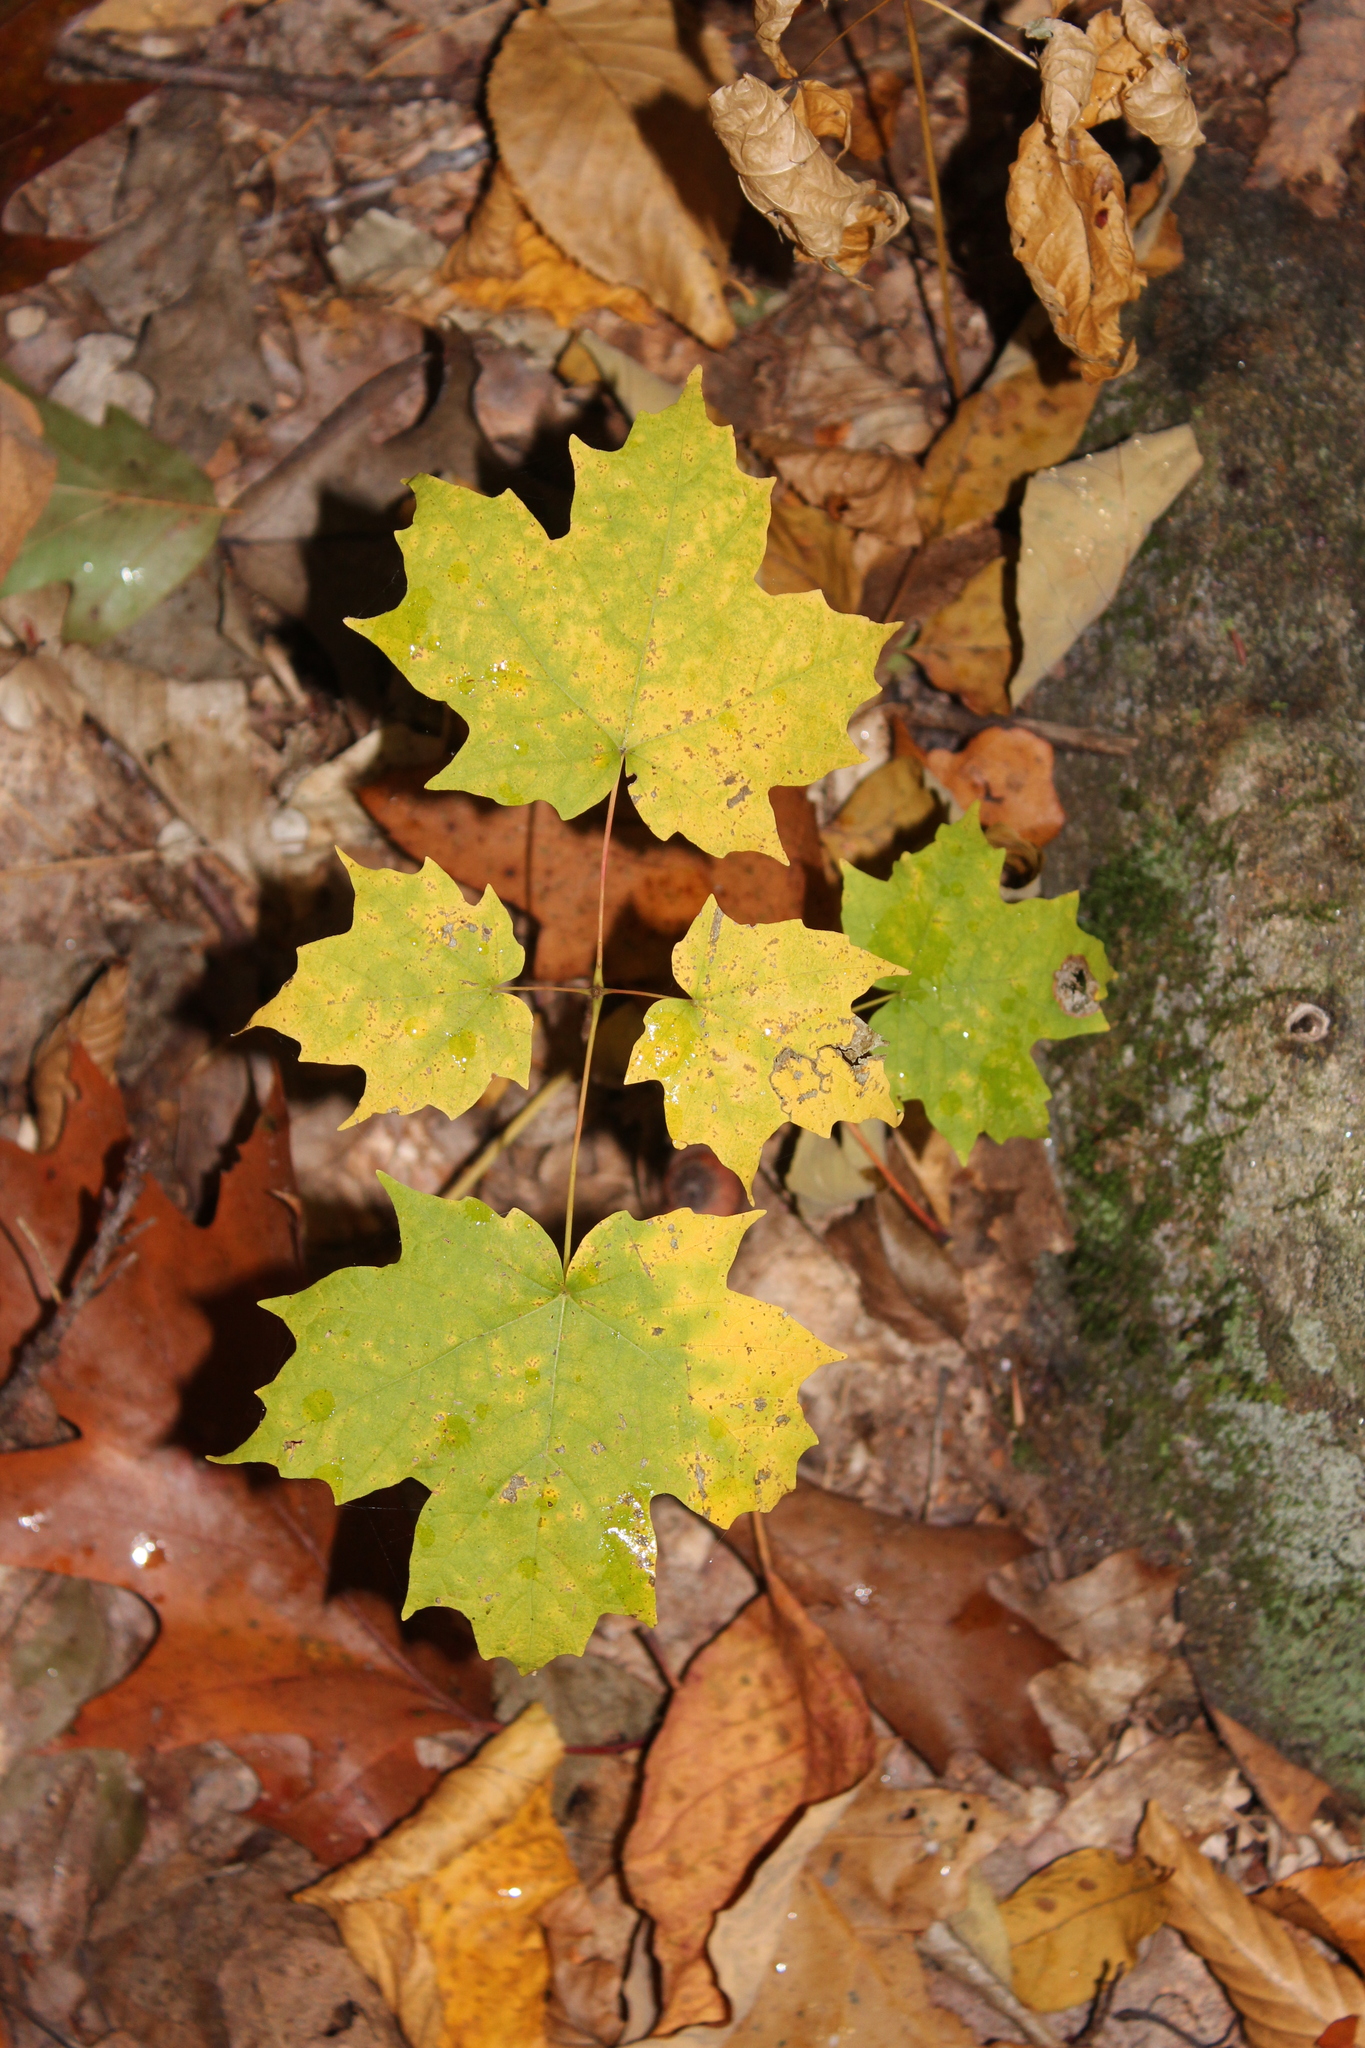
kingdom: Plantae
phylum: Tracheophyta
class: Magnoliopsida
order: Sapindales
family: Sapindaceae
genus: Acer
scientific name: Acer saccharum
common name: Sugar maple
